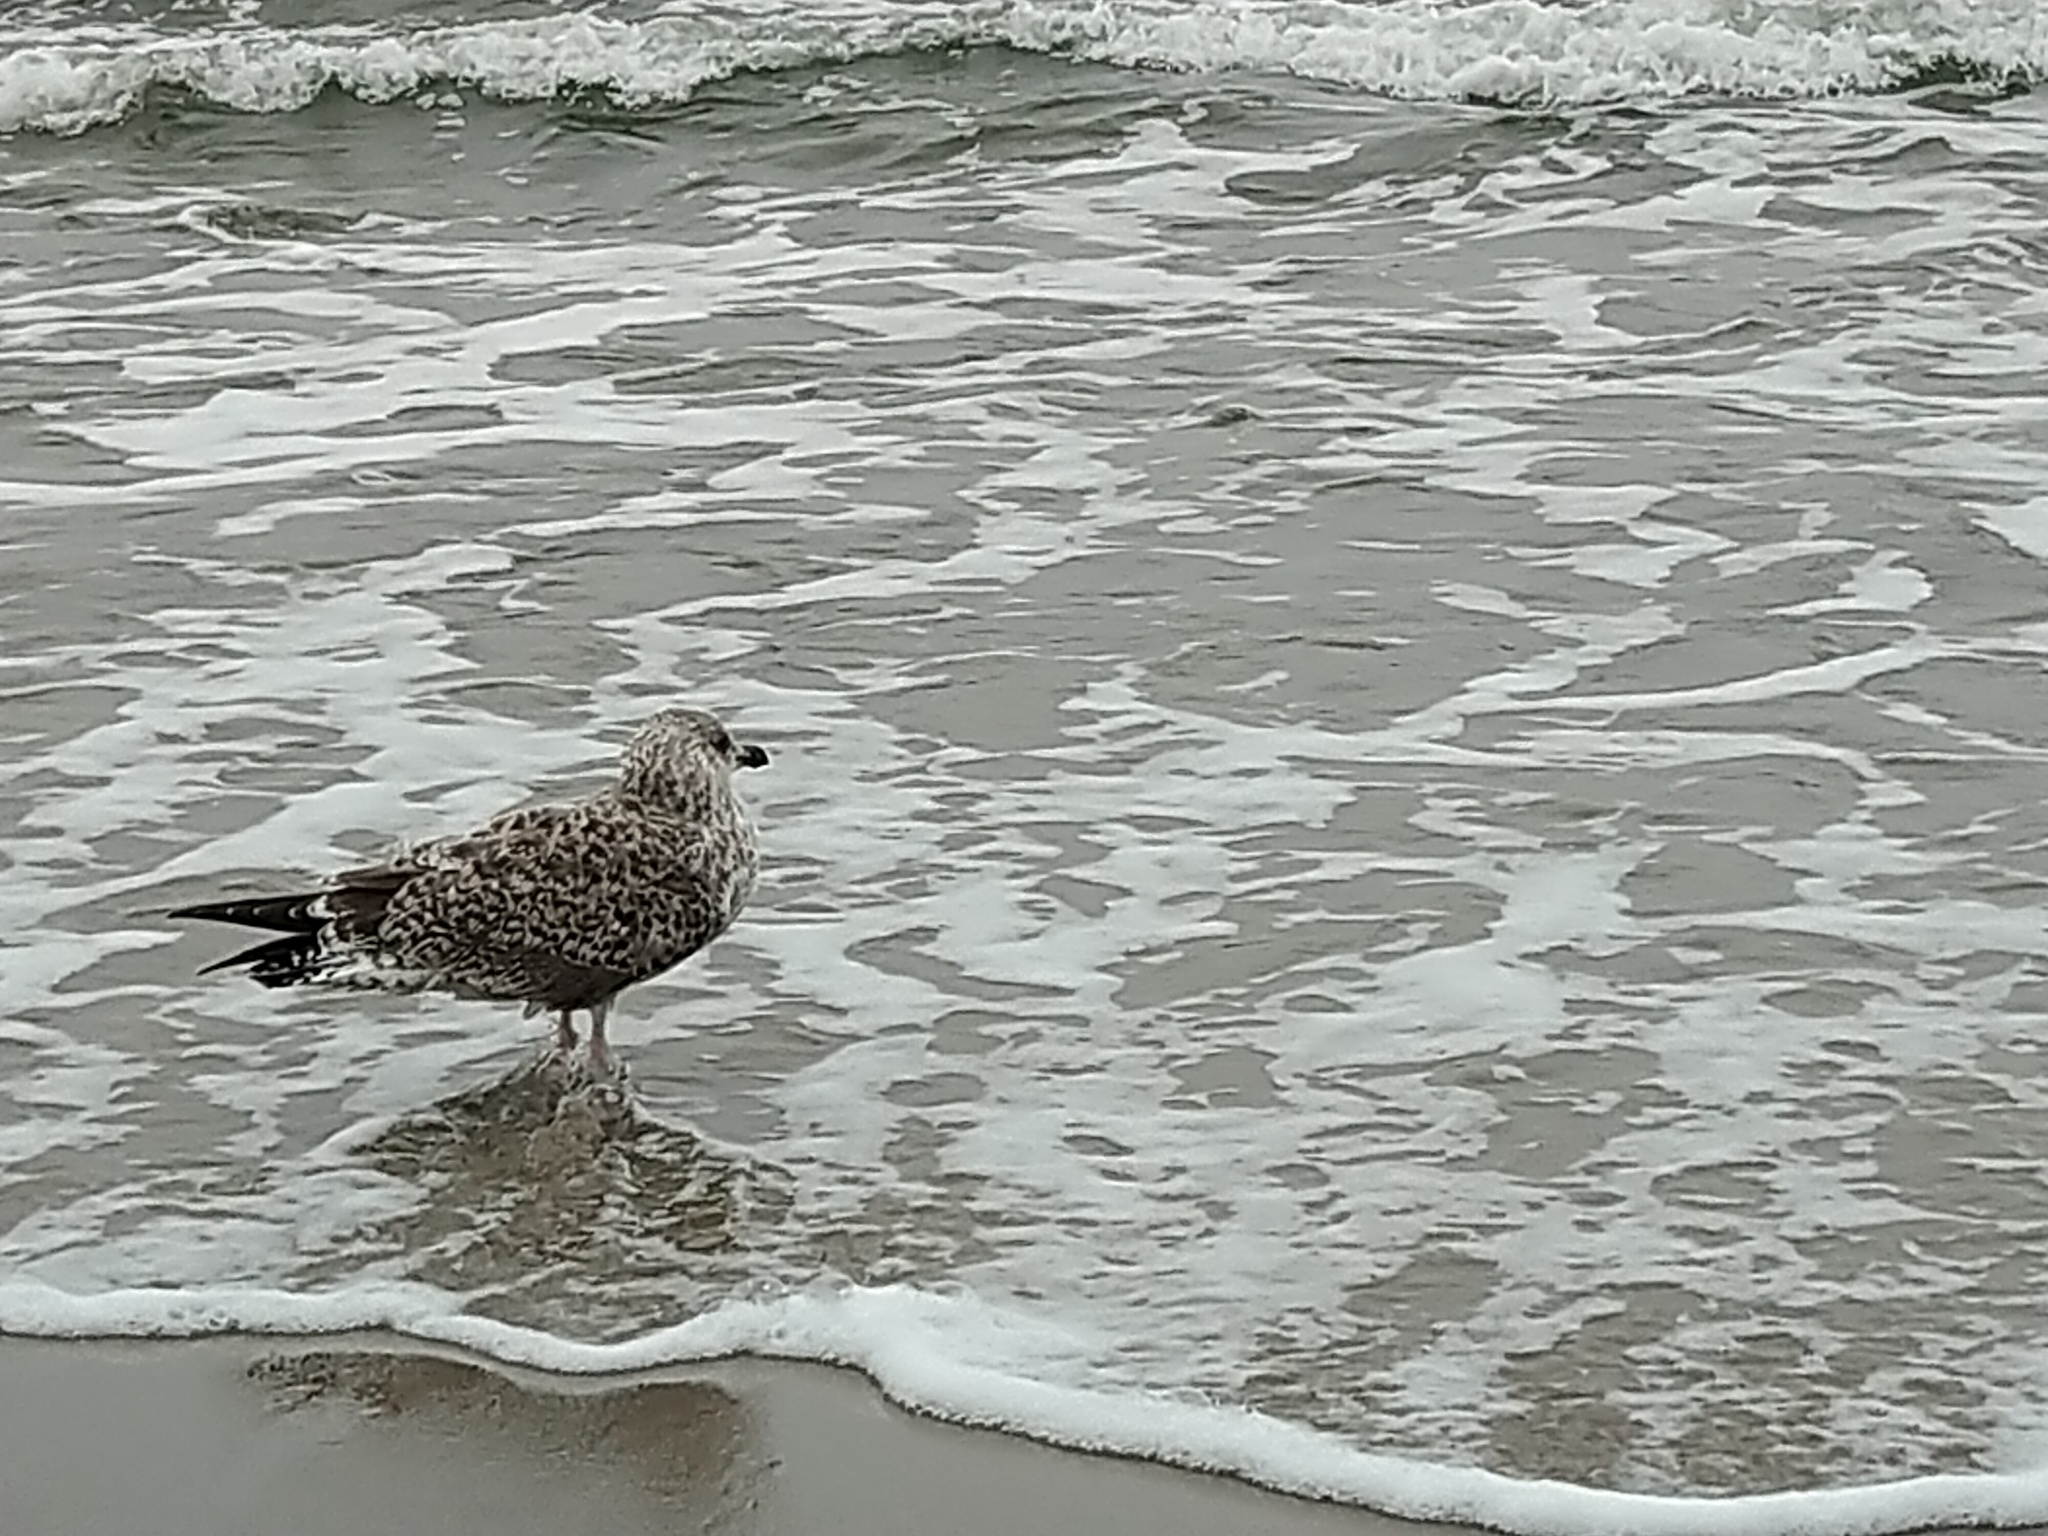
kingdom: Animalia
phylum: Chordata
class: Aves
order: Charadriiformes
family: Laridae
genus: Larus
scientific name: Larus argentatus
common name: Herring gull
